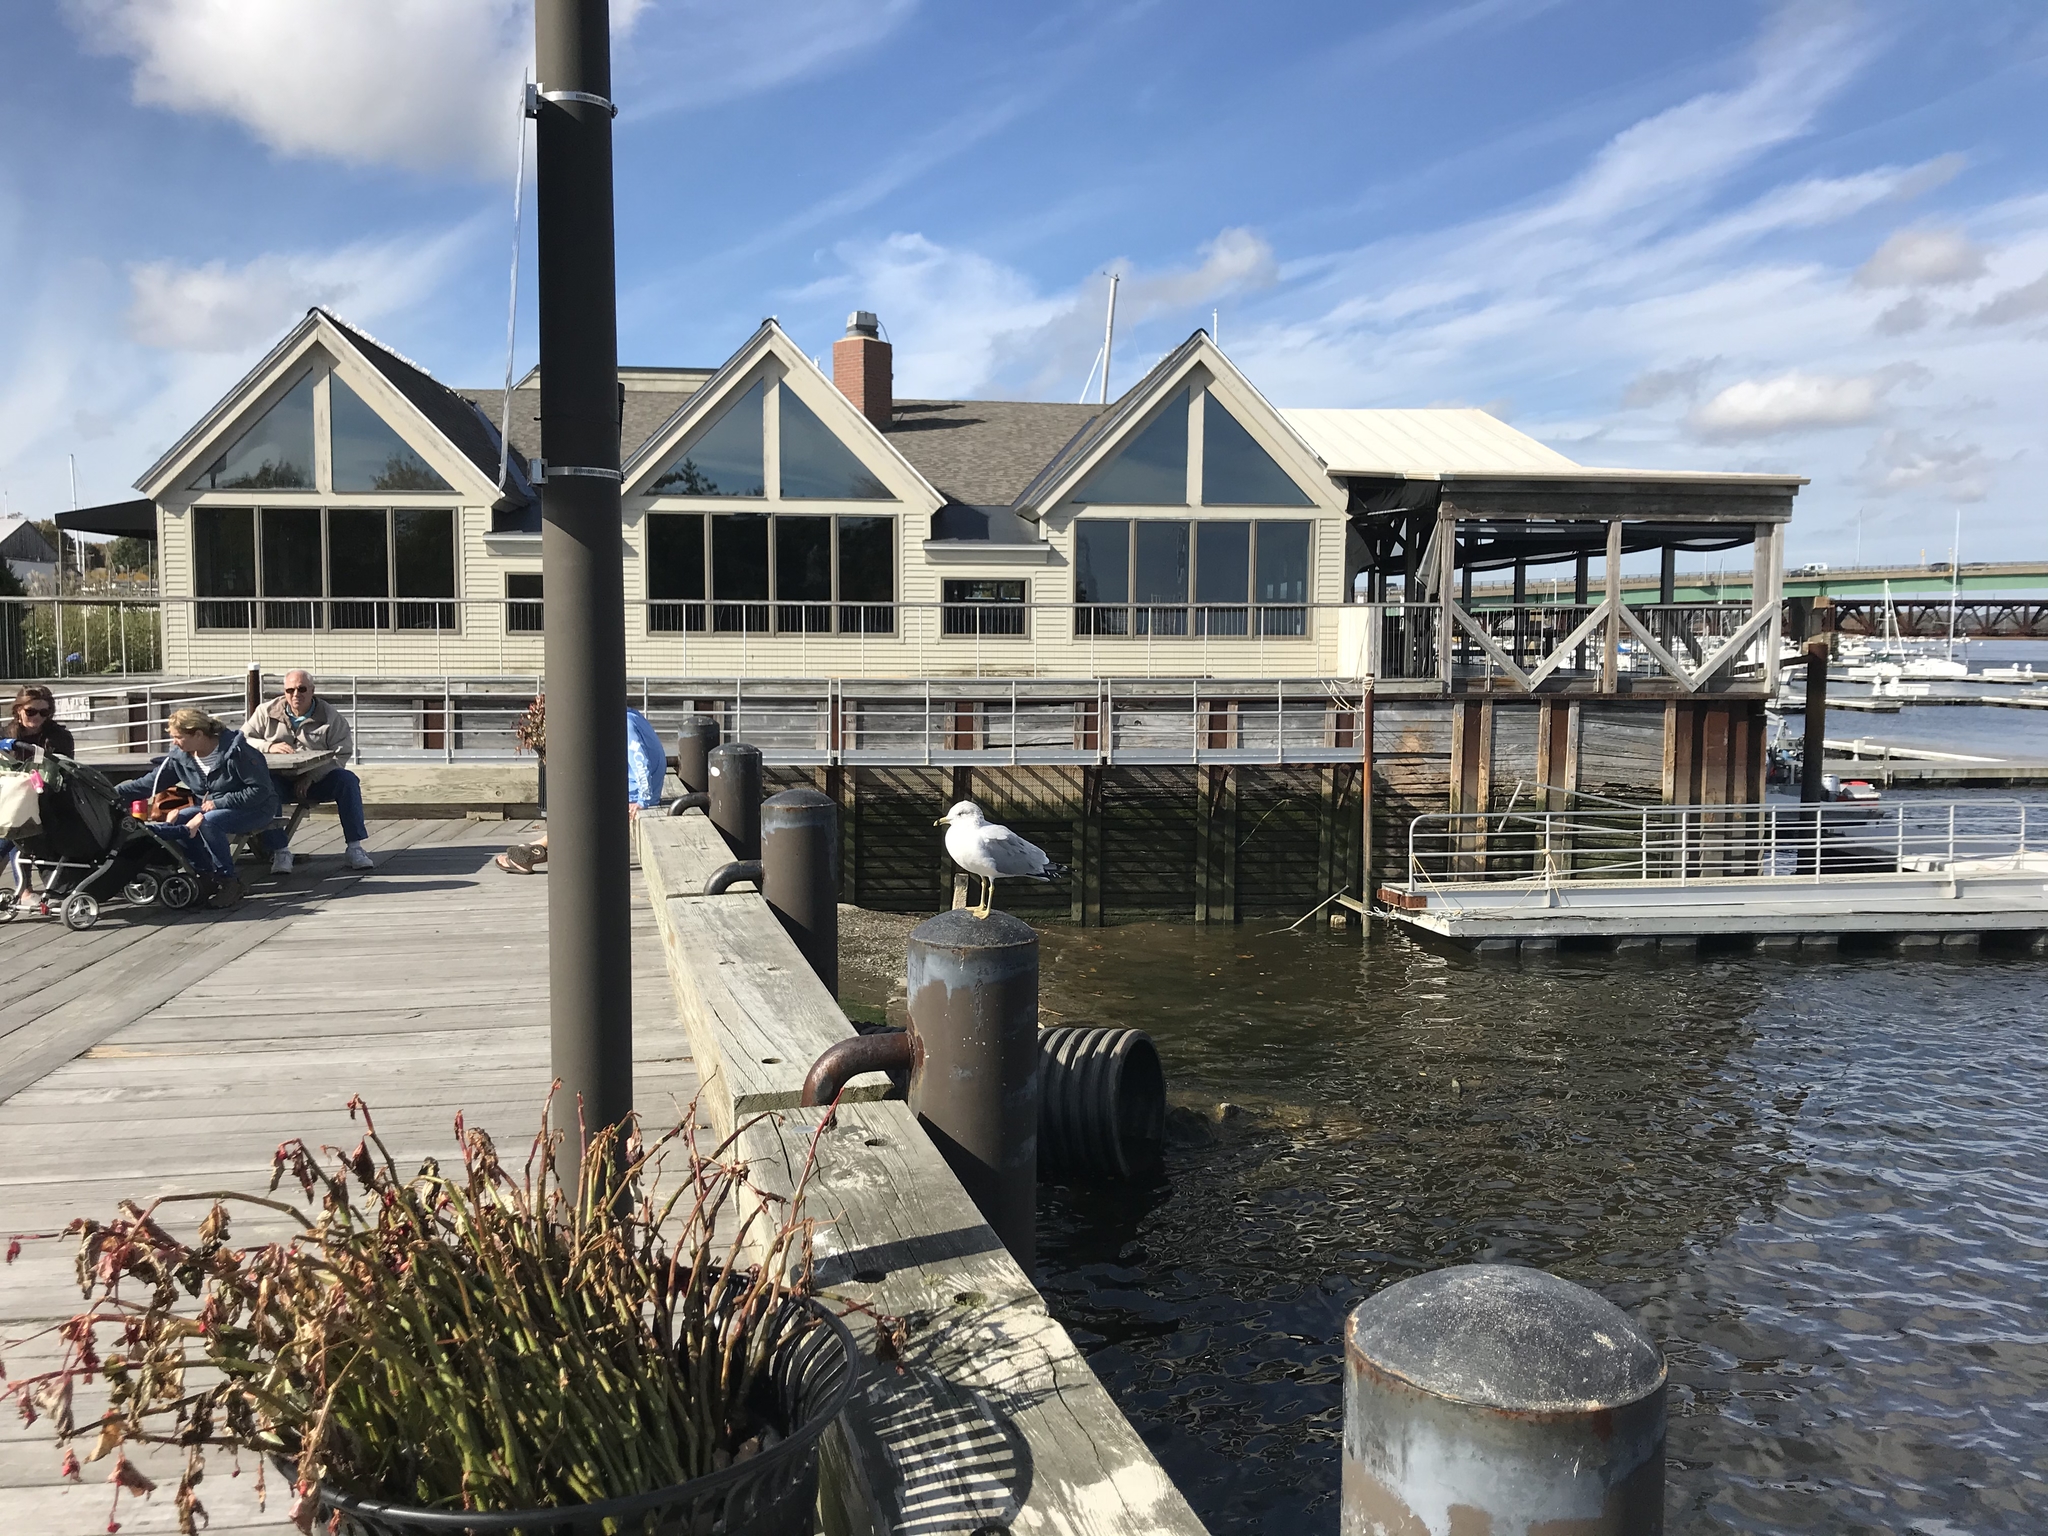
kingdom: Animalia
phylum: Chordata
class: Aves
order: Charadriiformes
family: Laridae
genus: Larus
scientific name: Larus delawarensis
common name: Ring-billed gull
